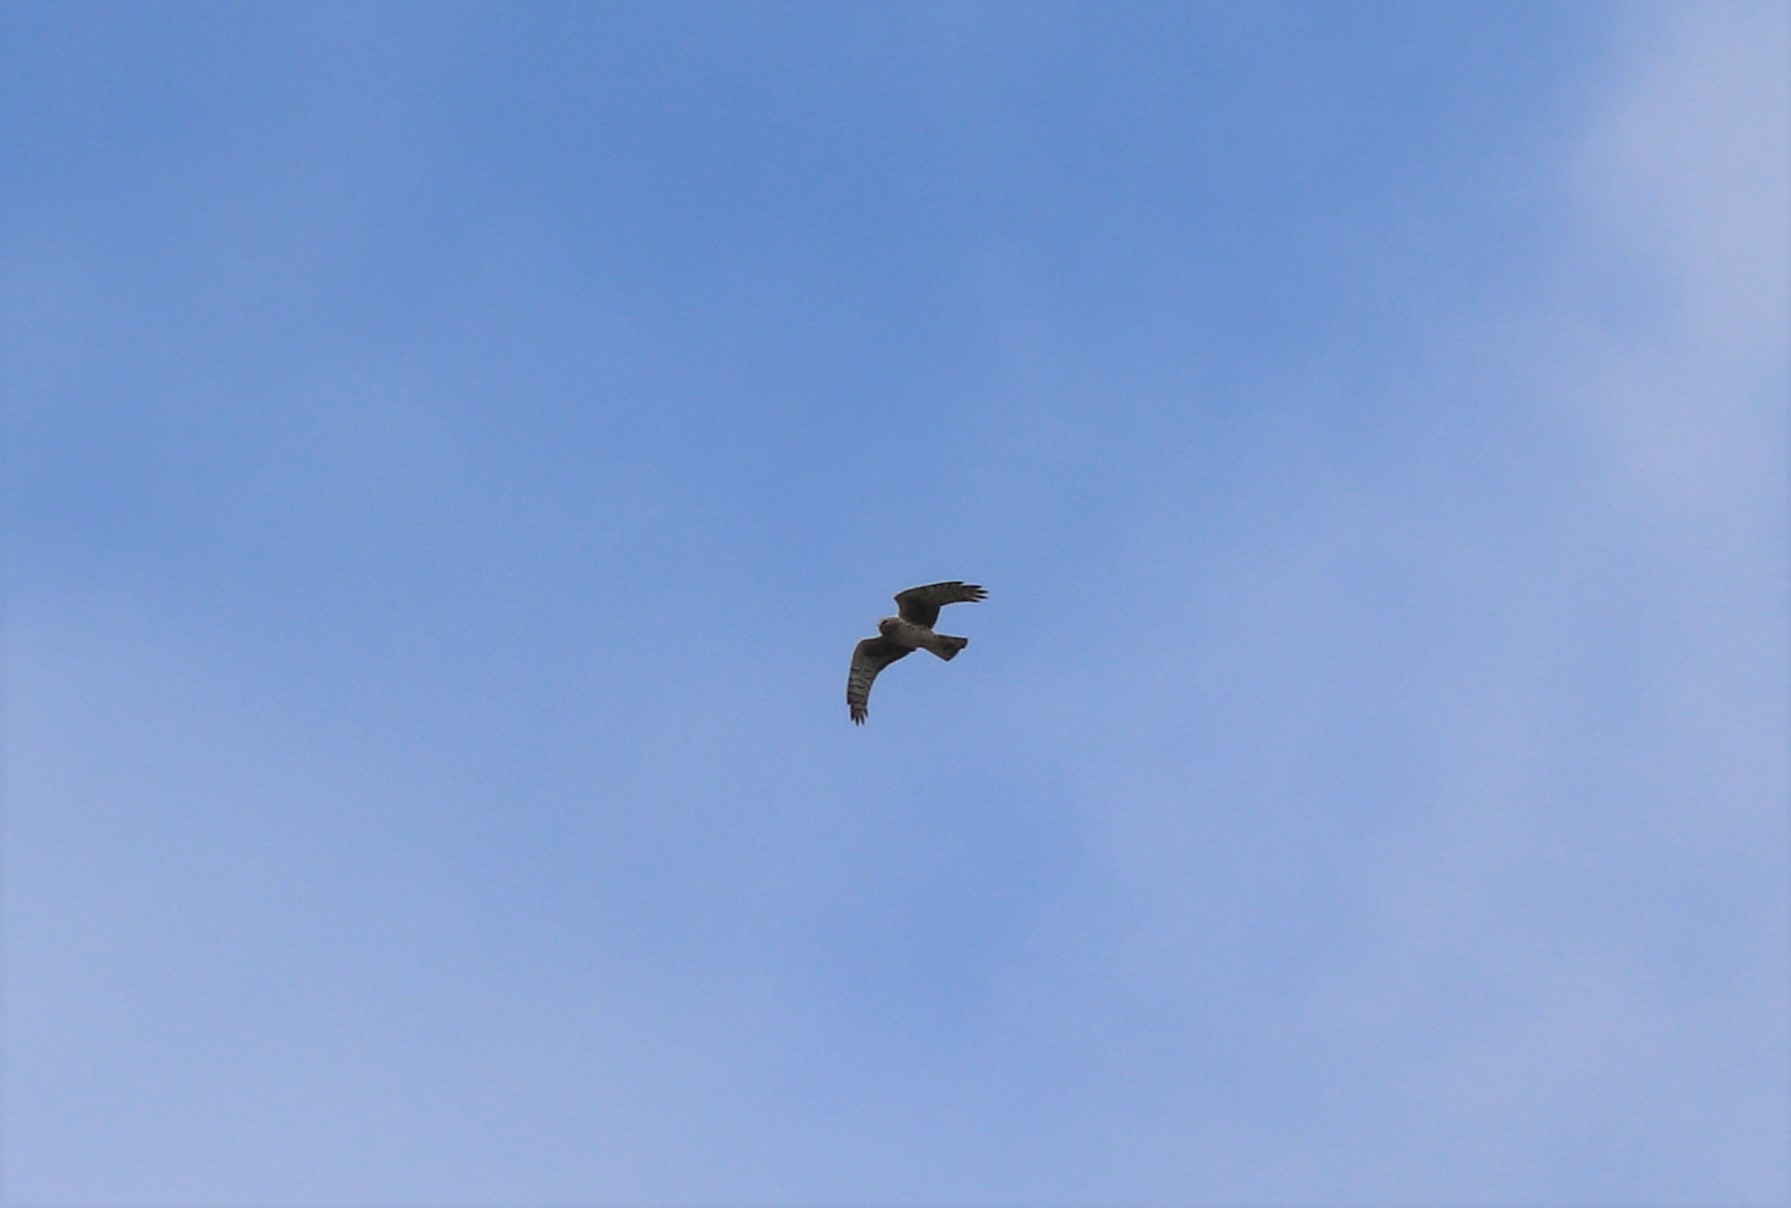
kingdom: Animalia
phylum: Chordata
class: Aves
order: Accipitriformes
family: Accipitridae
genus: Circus
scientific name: Circus cyaneus
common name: Hen harrier
